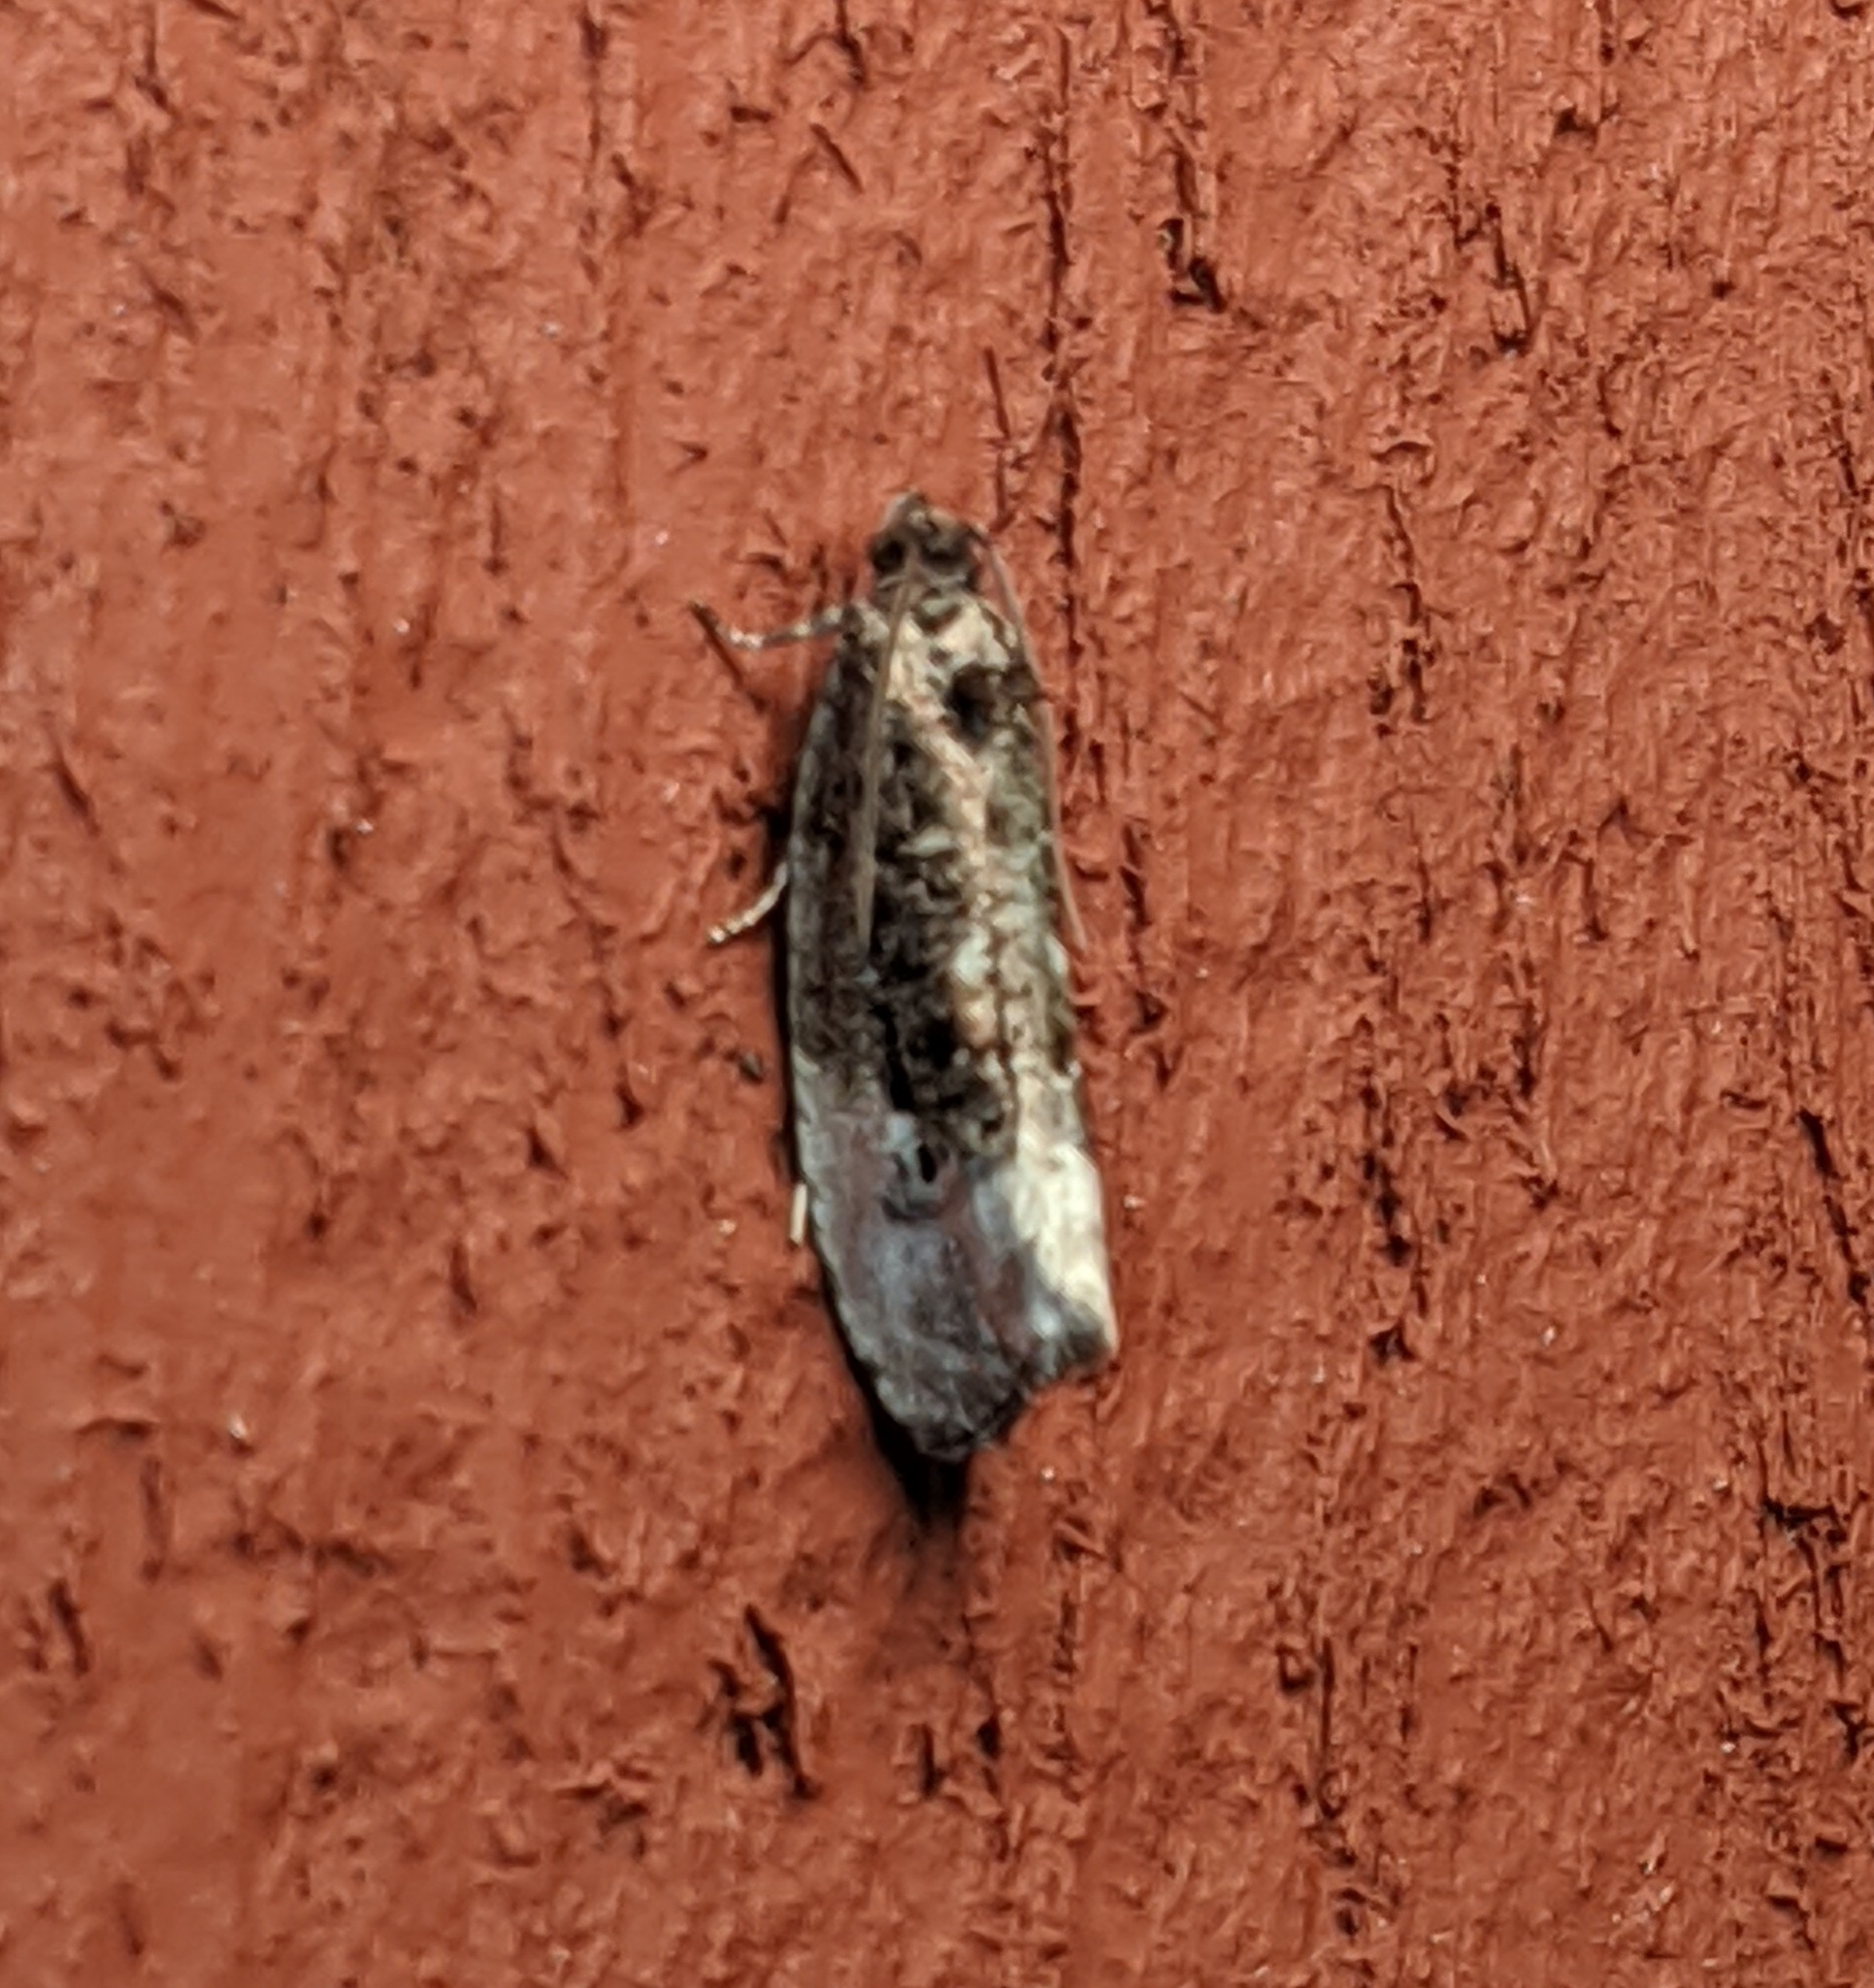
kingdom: Animalia
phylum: Arthropoda
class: Insecta
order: Lepidoptera
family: Tortricidae
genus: Hedya
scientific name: Hedya nubiferana
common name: Marbled orchard tortrix
